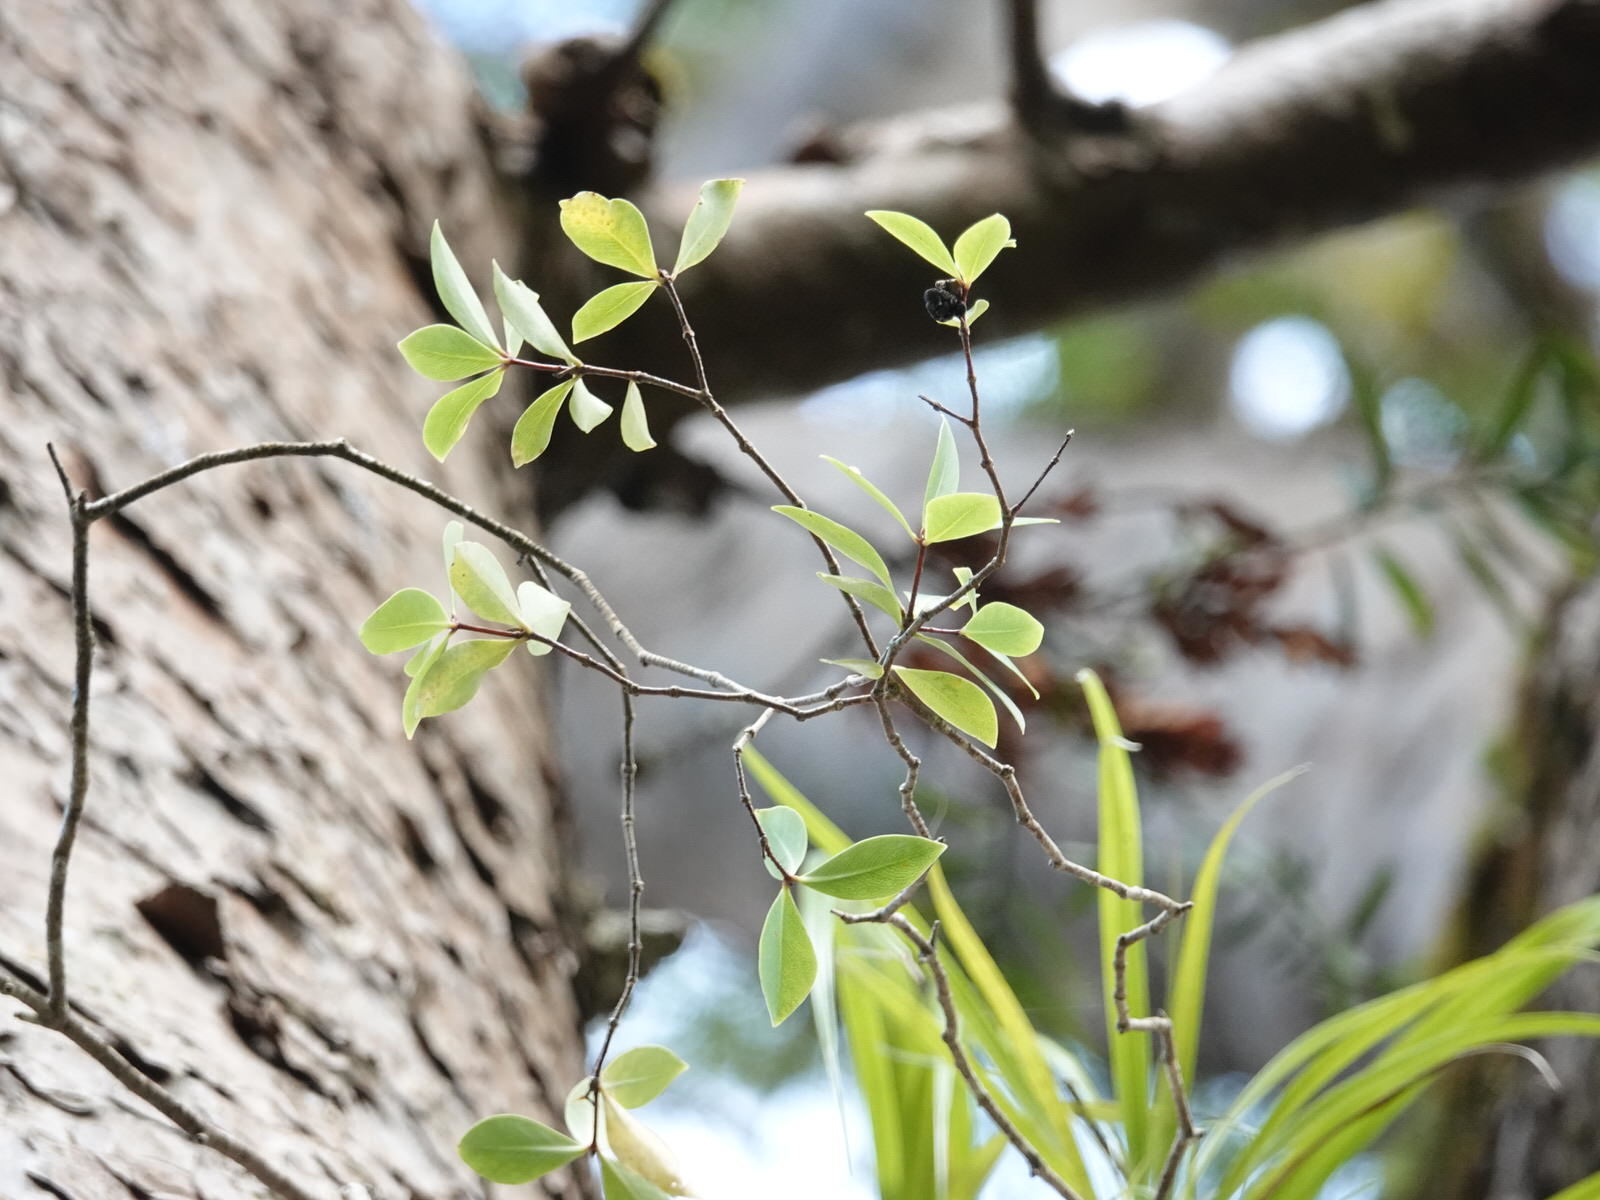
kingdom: Plantae
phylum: Tracheophyta
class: Magnoliopsida
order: Apiales
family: Pittosporaceae
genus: Pittosporum
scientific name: Pittosporum cornifolium
